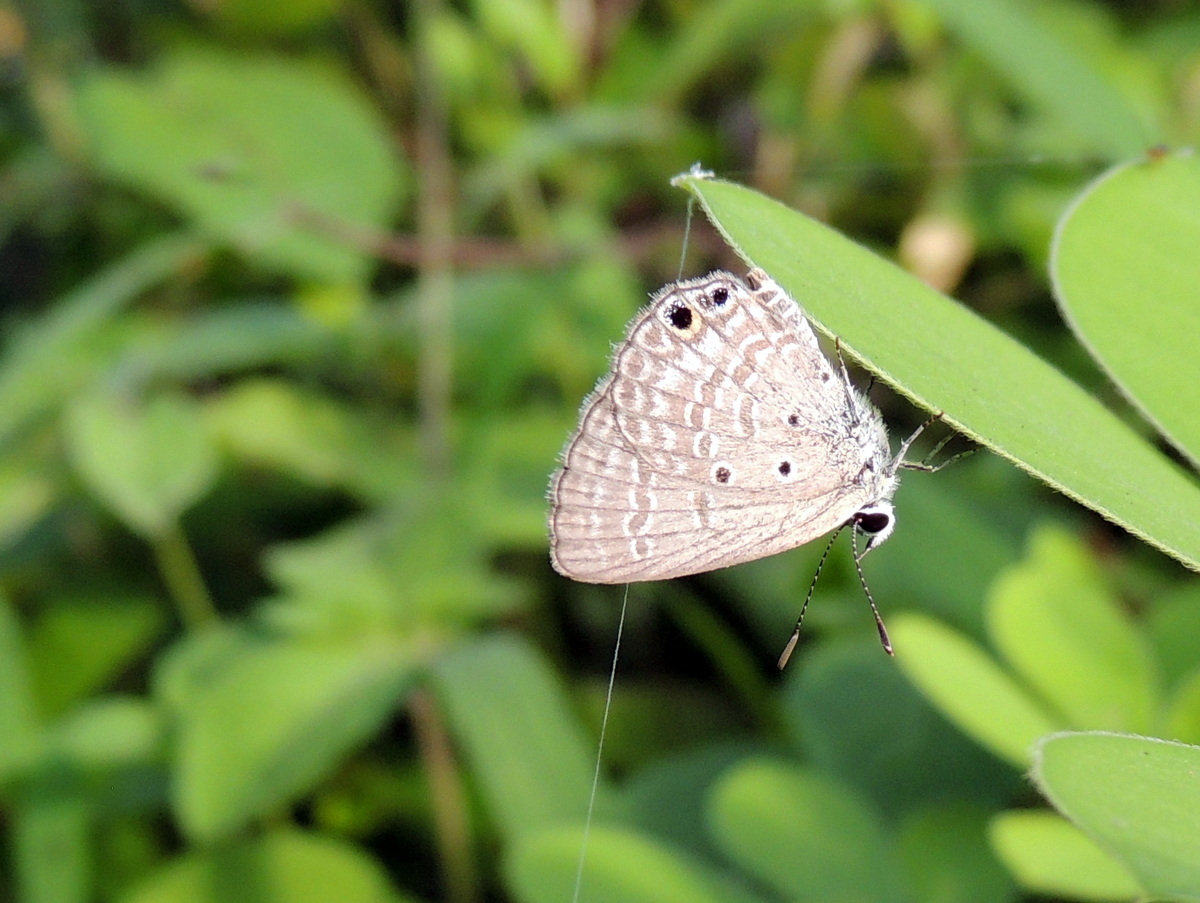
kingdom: Animalia
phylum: Arthropoda
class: Insecta
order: Lepidoptera
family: Lycaenidae
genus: Chilades
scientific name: Chilades parrhasius
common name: Small cupid
